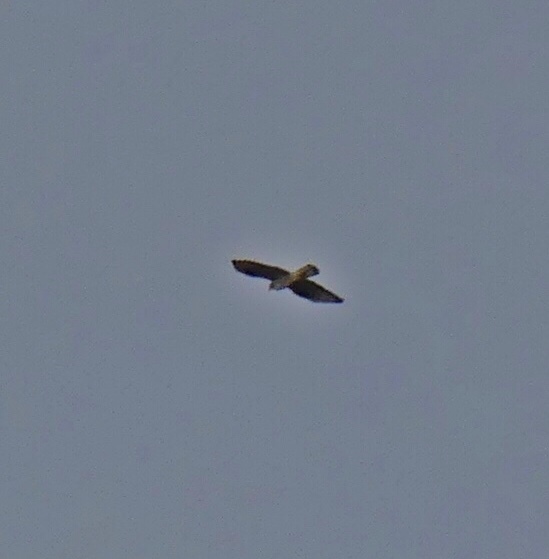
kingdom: Animalia
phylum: Chordata
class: Aves
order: Accipitriformes
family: Accipitridae
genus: Aquila
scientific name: Aquila fasciata
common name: Bonelli's eagle
